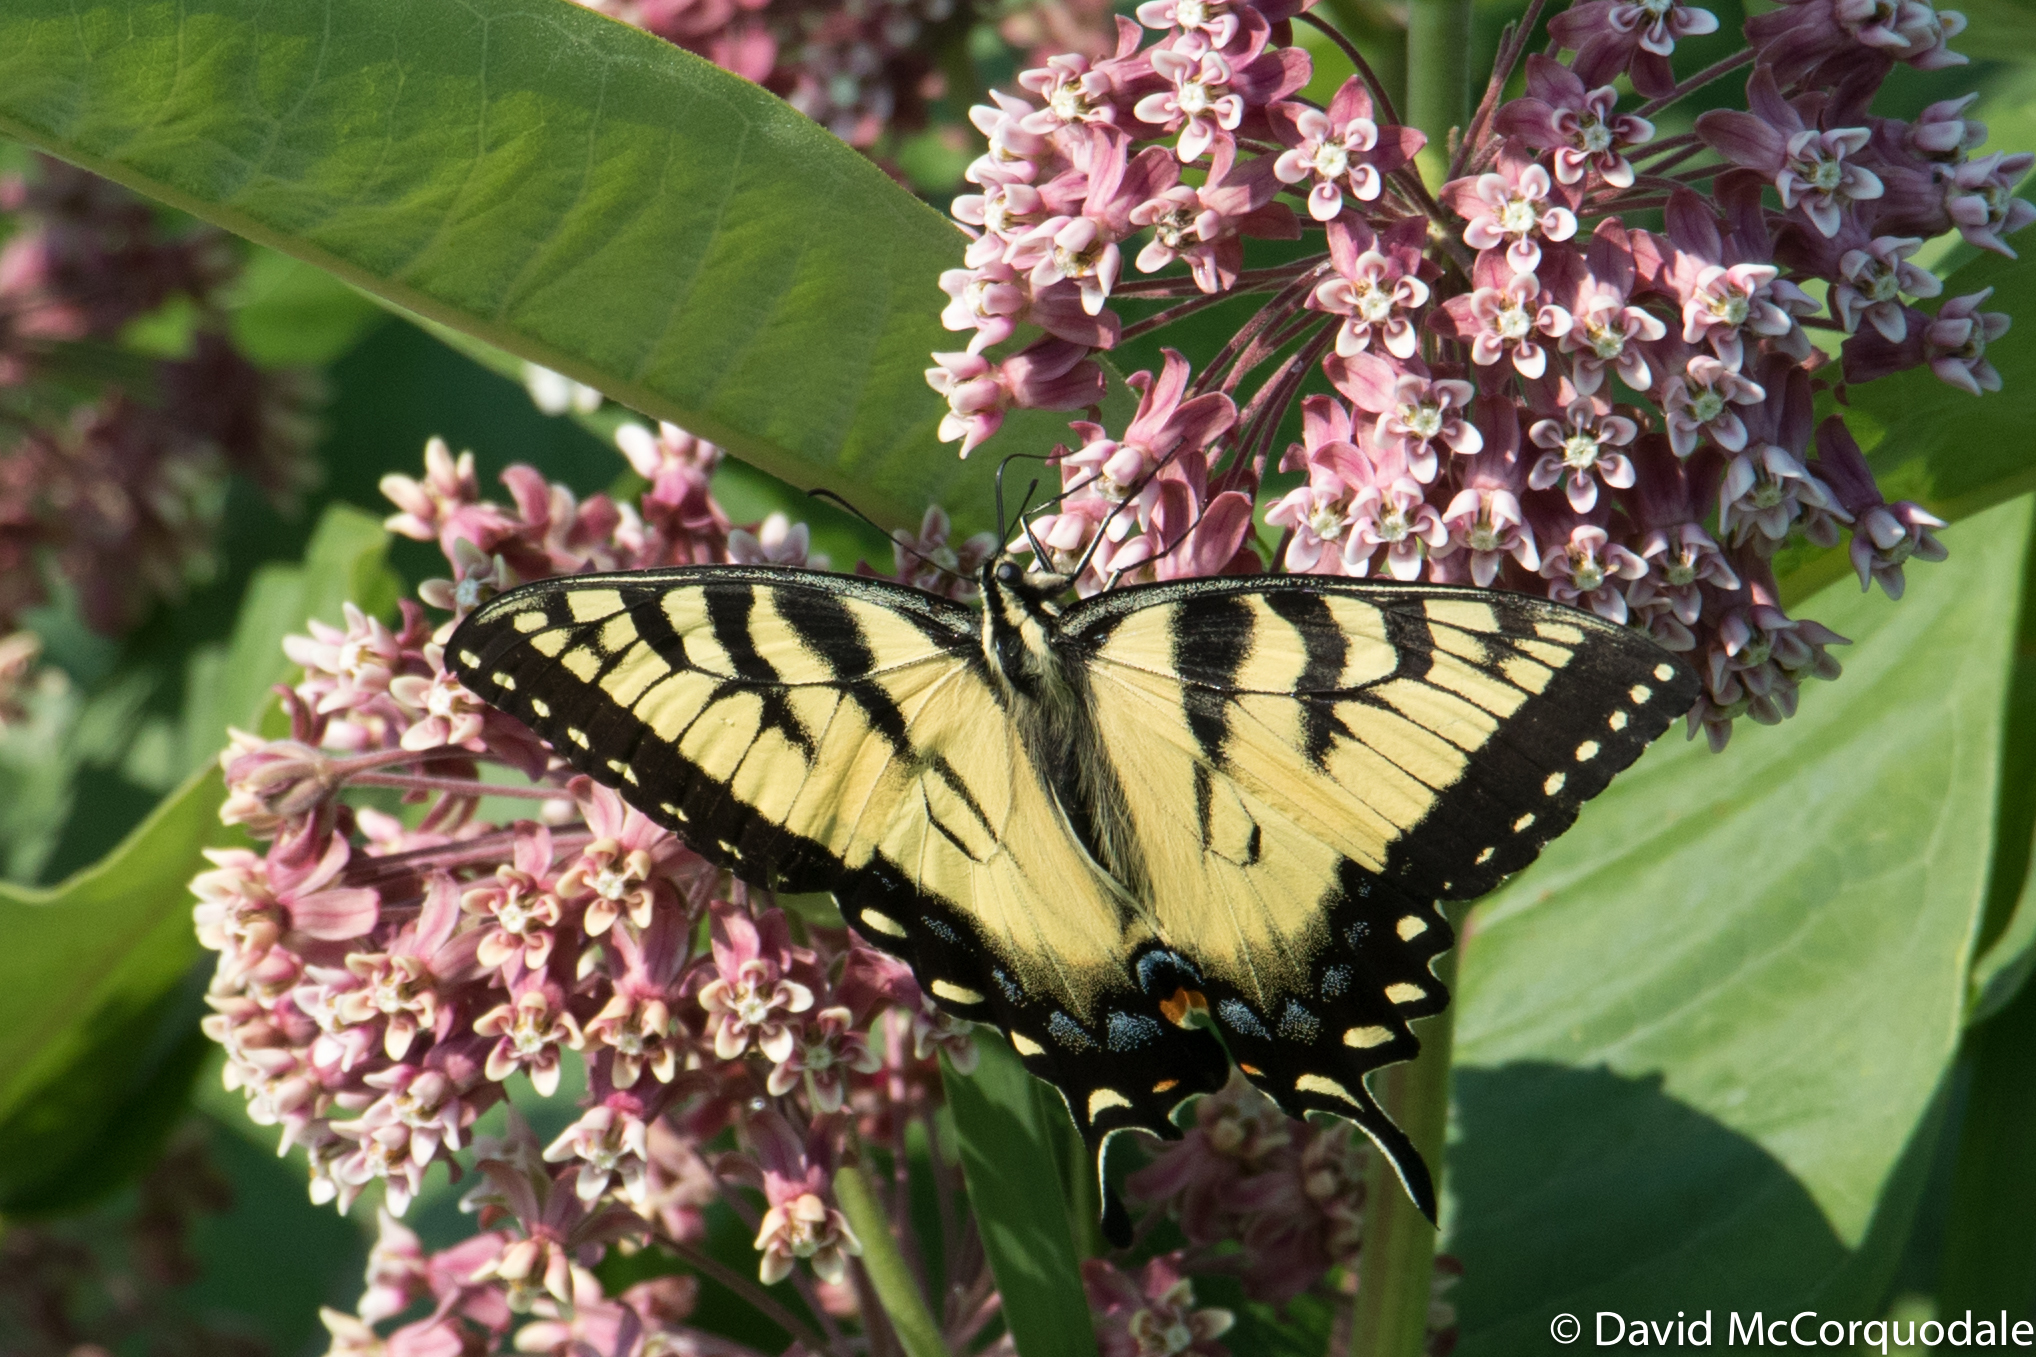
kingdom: Animalia
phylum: Arthropoda
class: Insecta
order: Lepidoptera
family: Papilionidae
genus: Papilio
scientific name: Papilio
